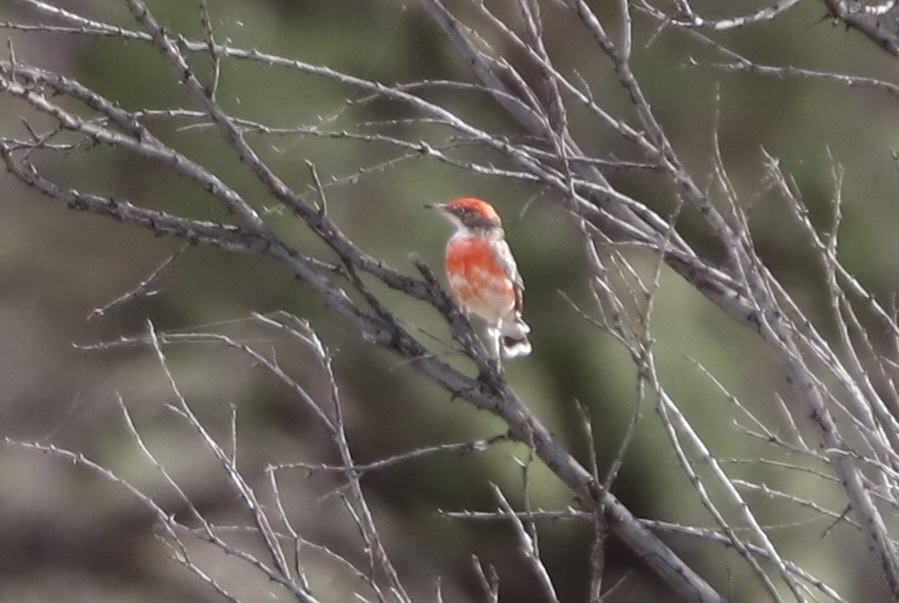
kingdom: Animalia
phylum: Chordata
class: Aves
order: Passeriformes
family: Meliphagidae
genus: Epthianura
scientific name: Epthianura tricolor
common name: Crimson chat
